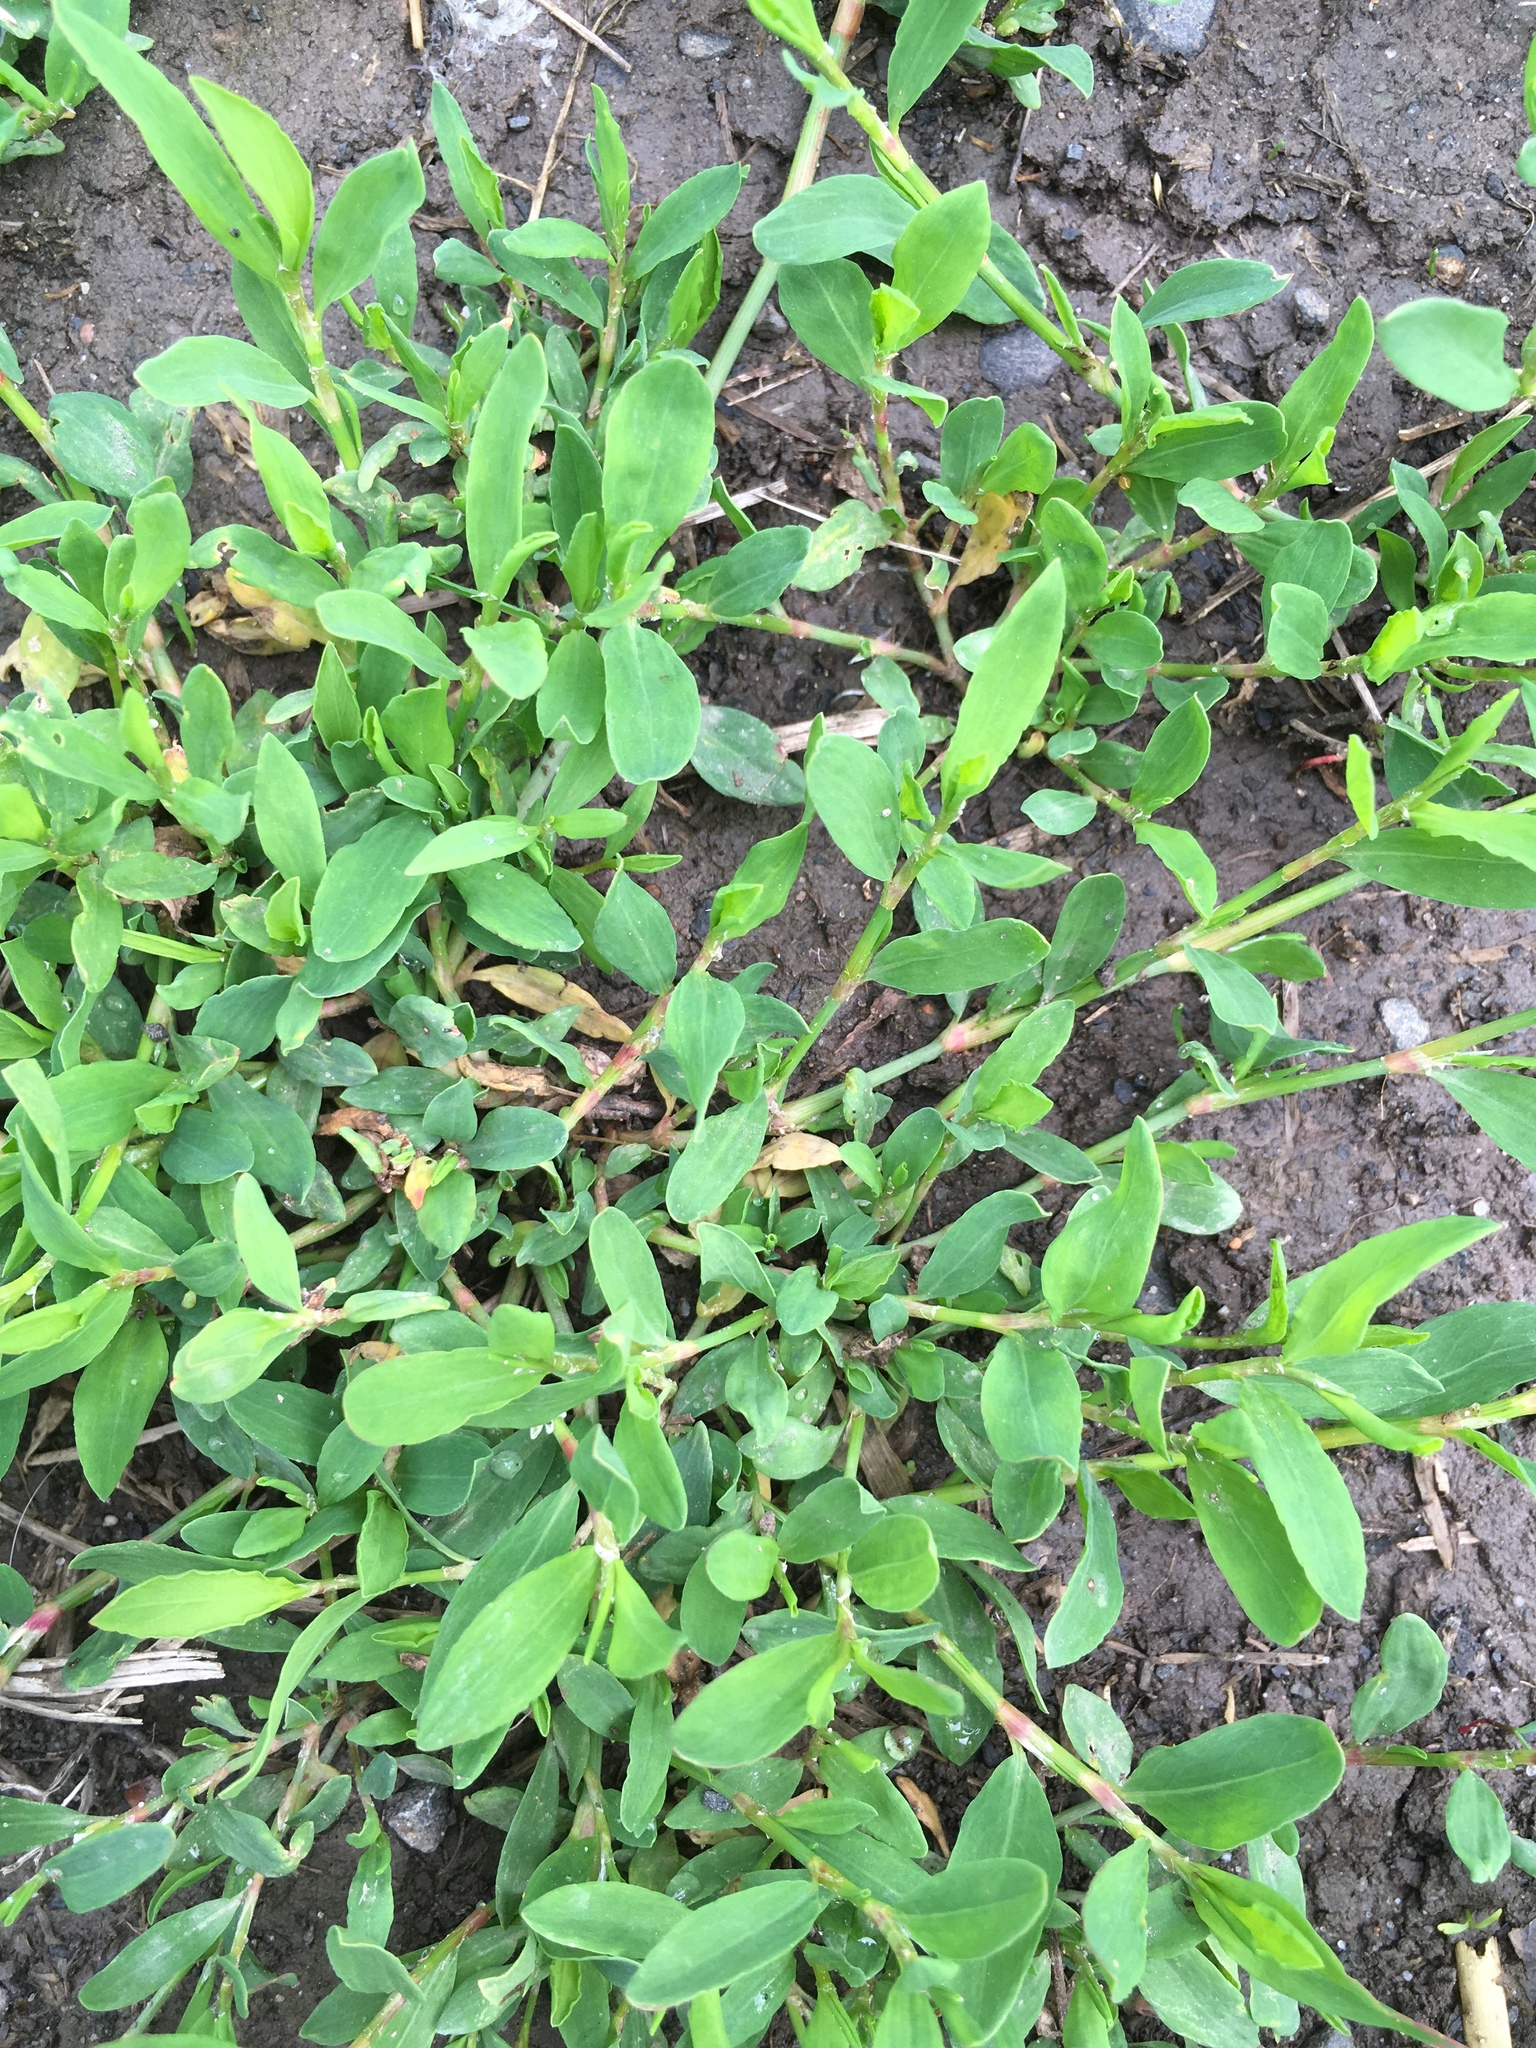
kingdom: Plantae
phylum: Tracheophyta
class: Magnoliopsida
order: Caryophyllales
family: Polygonaceae
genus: Polygonum
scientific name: Polygonum aviculare
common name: Prostrate knotweed
